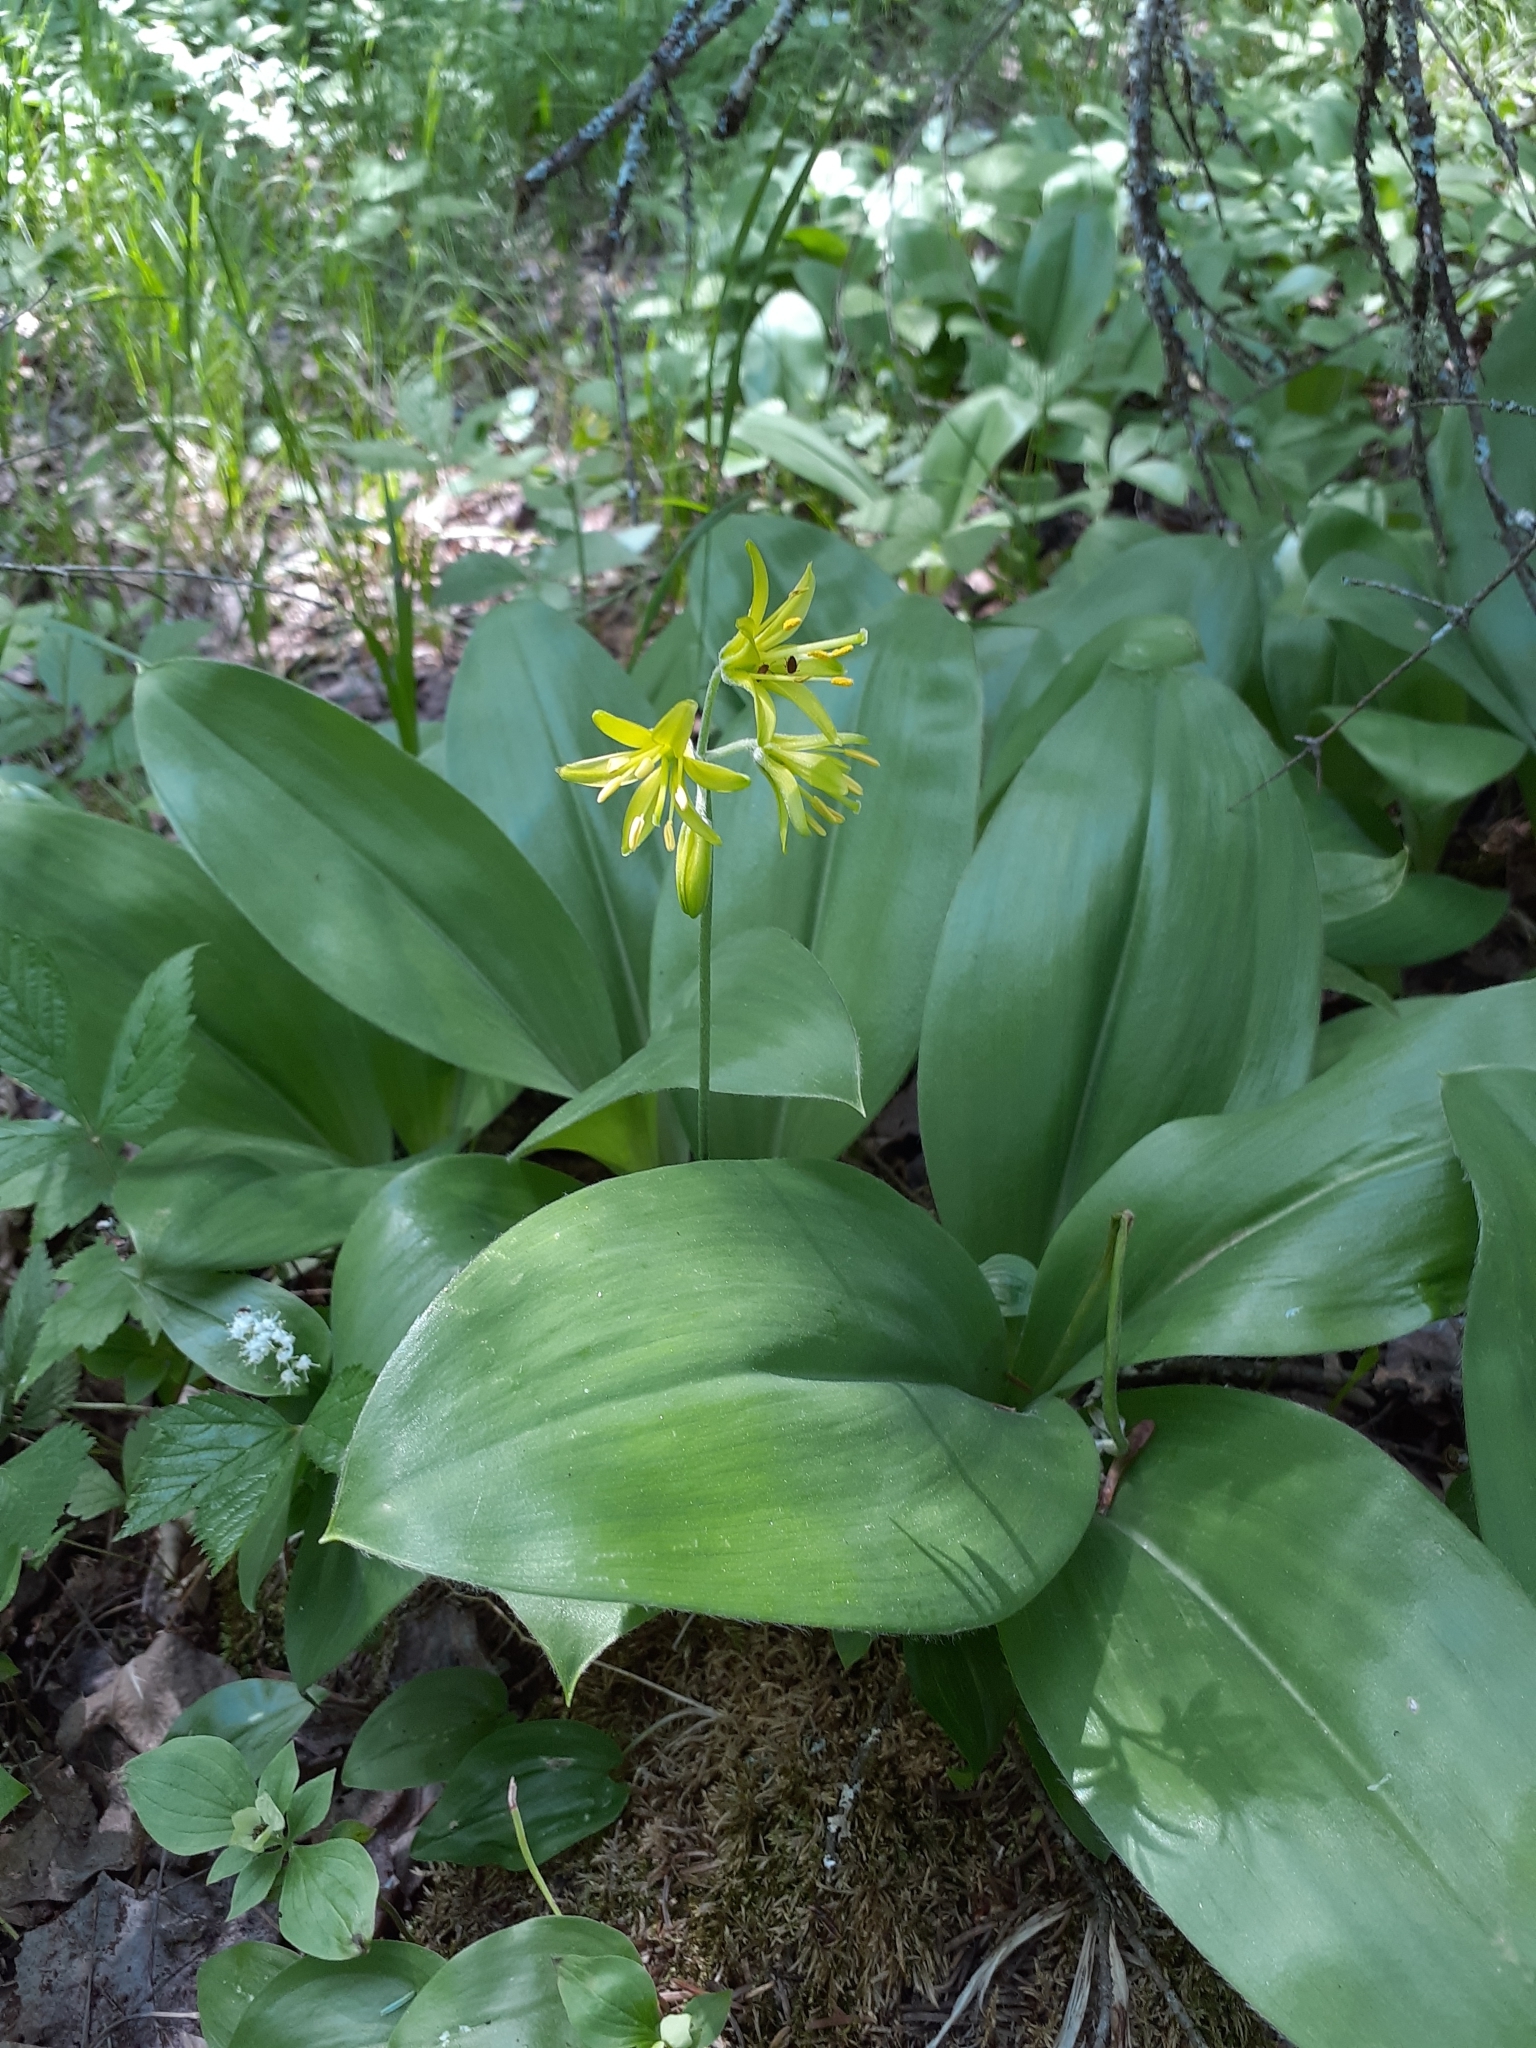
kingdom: Plantae
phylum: Tracheophyta
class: Liliopsida
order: Liliales
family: Liliaceae
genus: Clintonia
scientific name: Clintonia borealis
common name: Yellow clintonia
